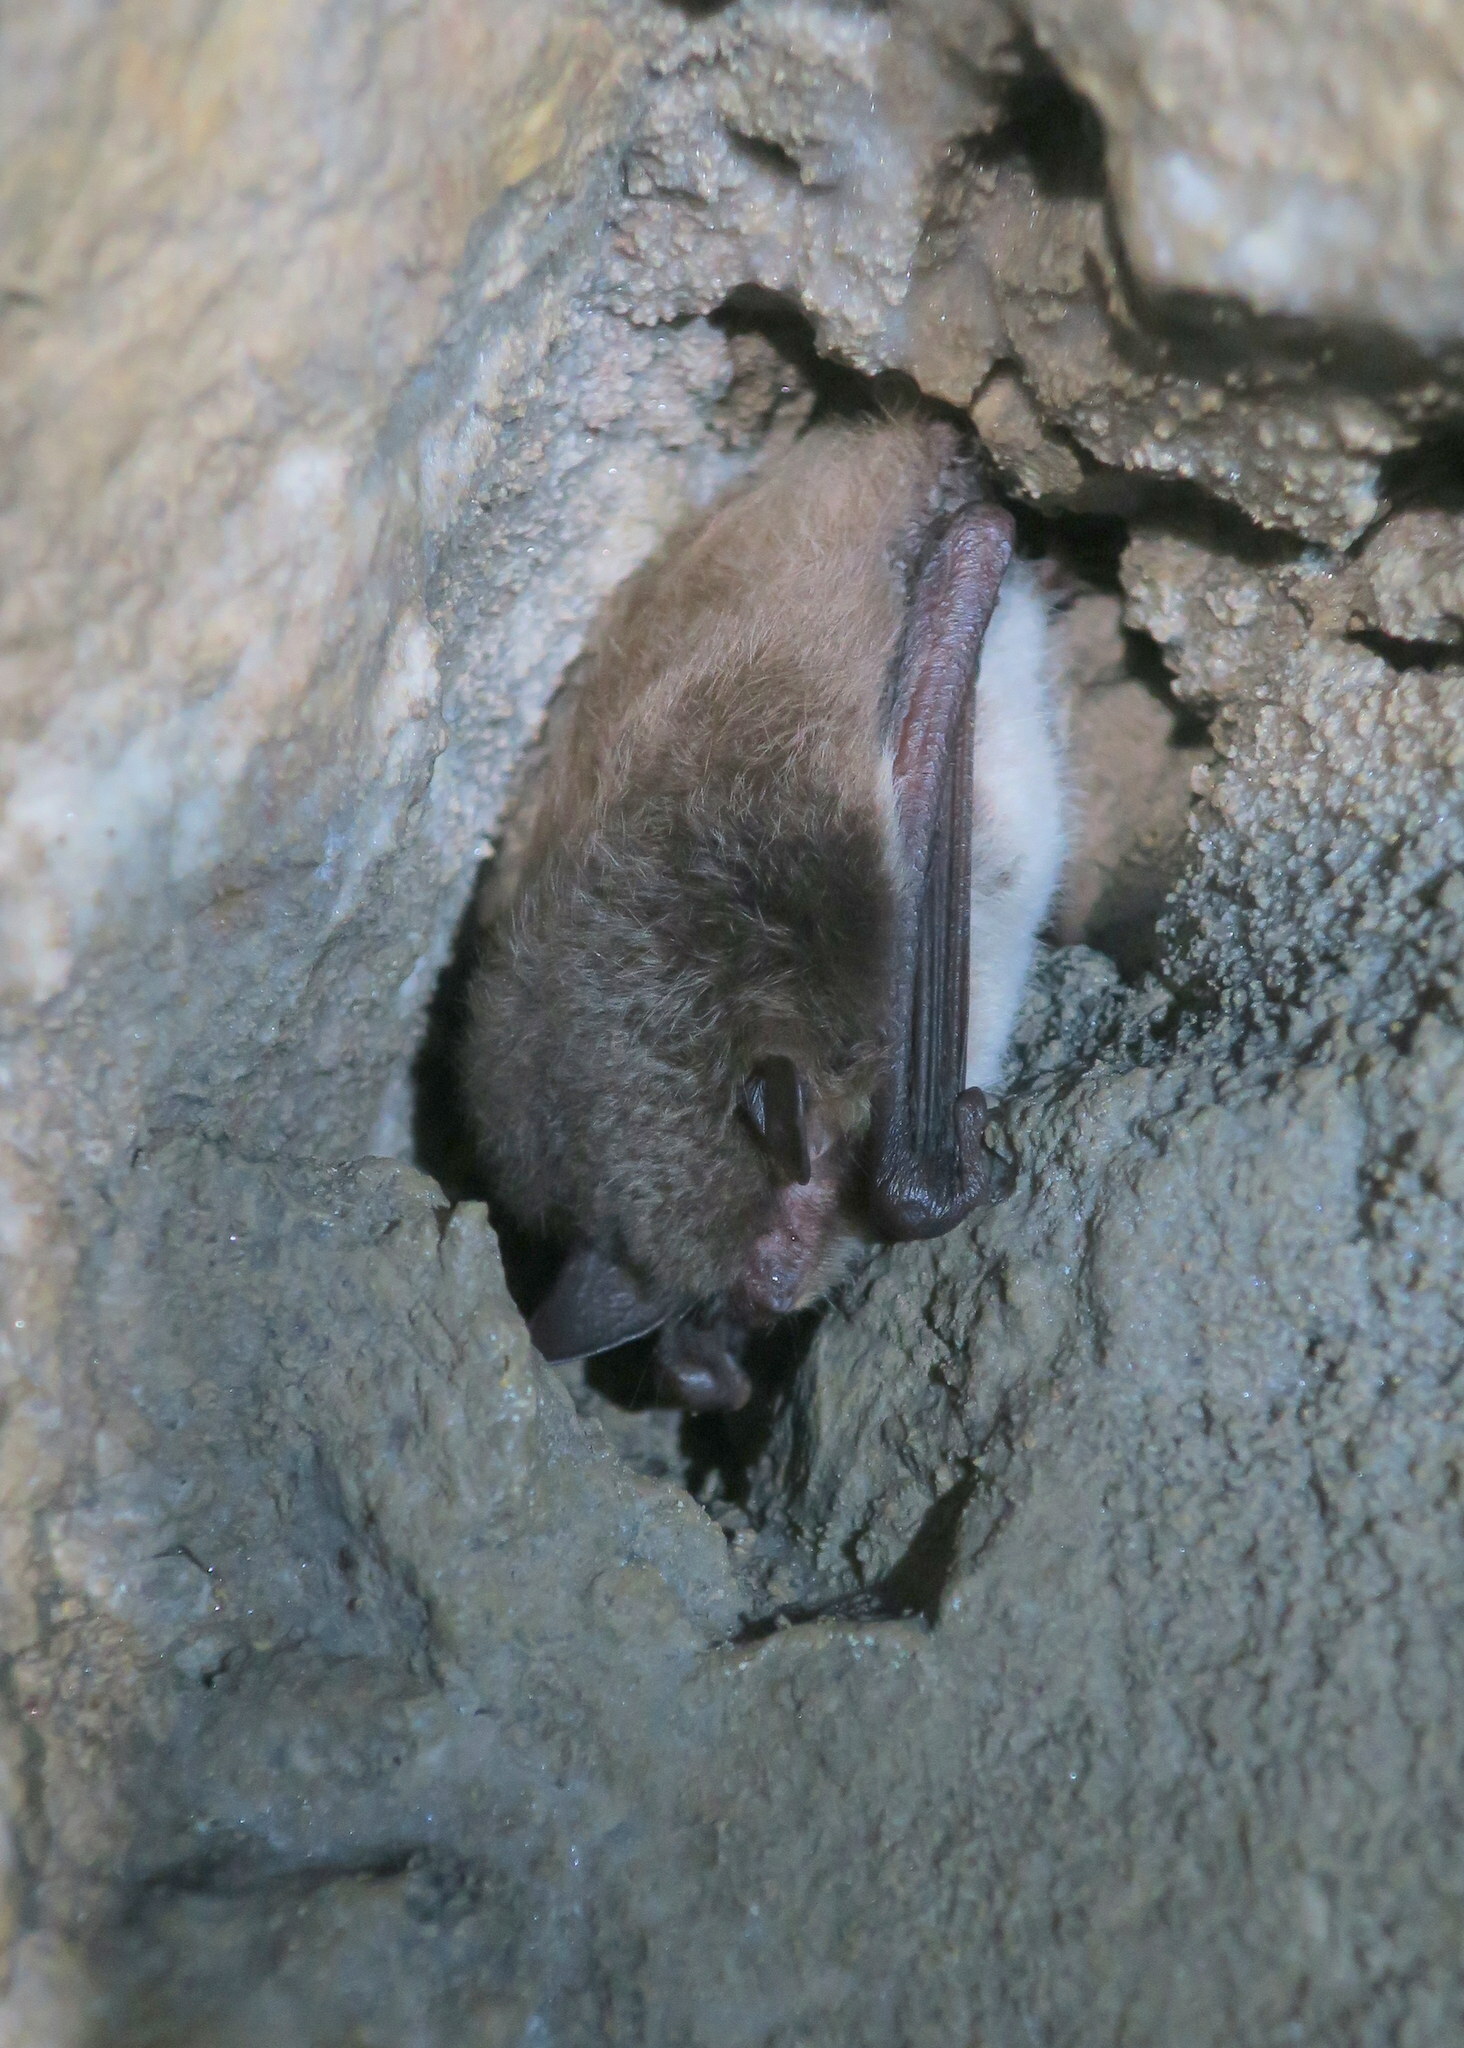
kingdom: Animalia
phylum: Chordata
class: Mammalia
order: Chiroptera
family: Vespertilionidae
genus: Myotis
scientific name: Myotis daubentonii
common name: Daubenton's myotis
